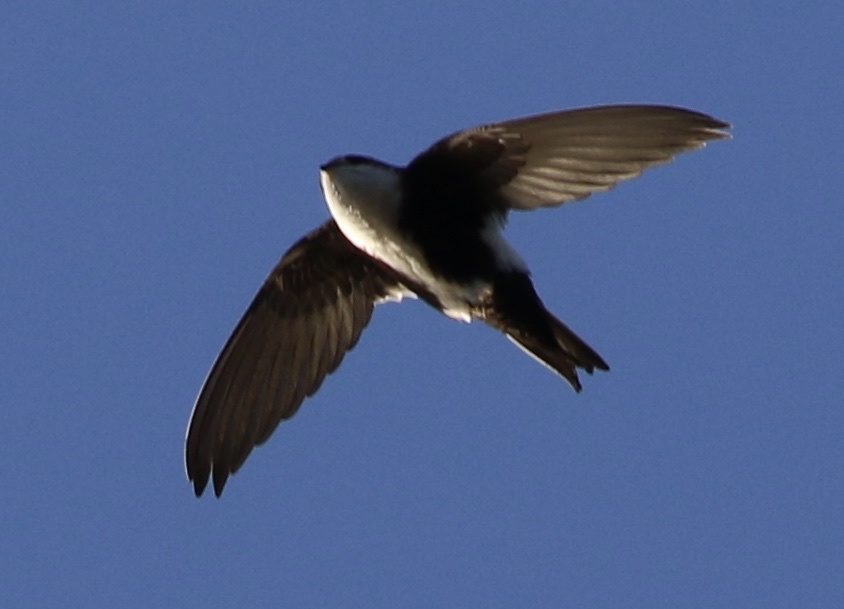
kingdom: Animalia
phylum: Chordata
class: Aves
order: Apodiformes
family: Apodidae
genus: Aeronautes
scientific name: Aeronautes saxatalis
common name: White-throated swift
